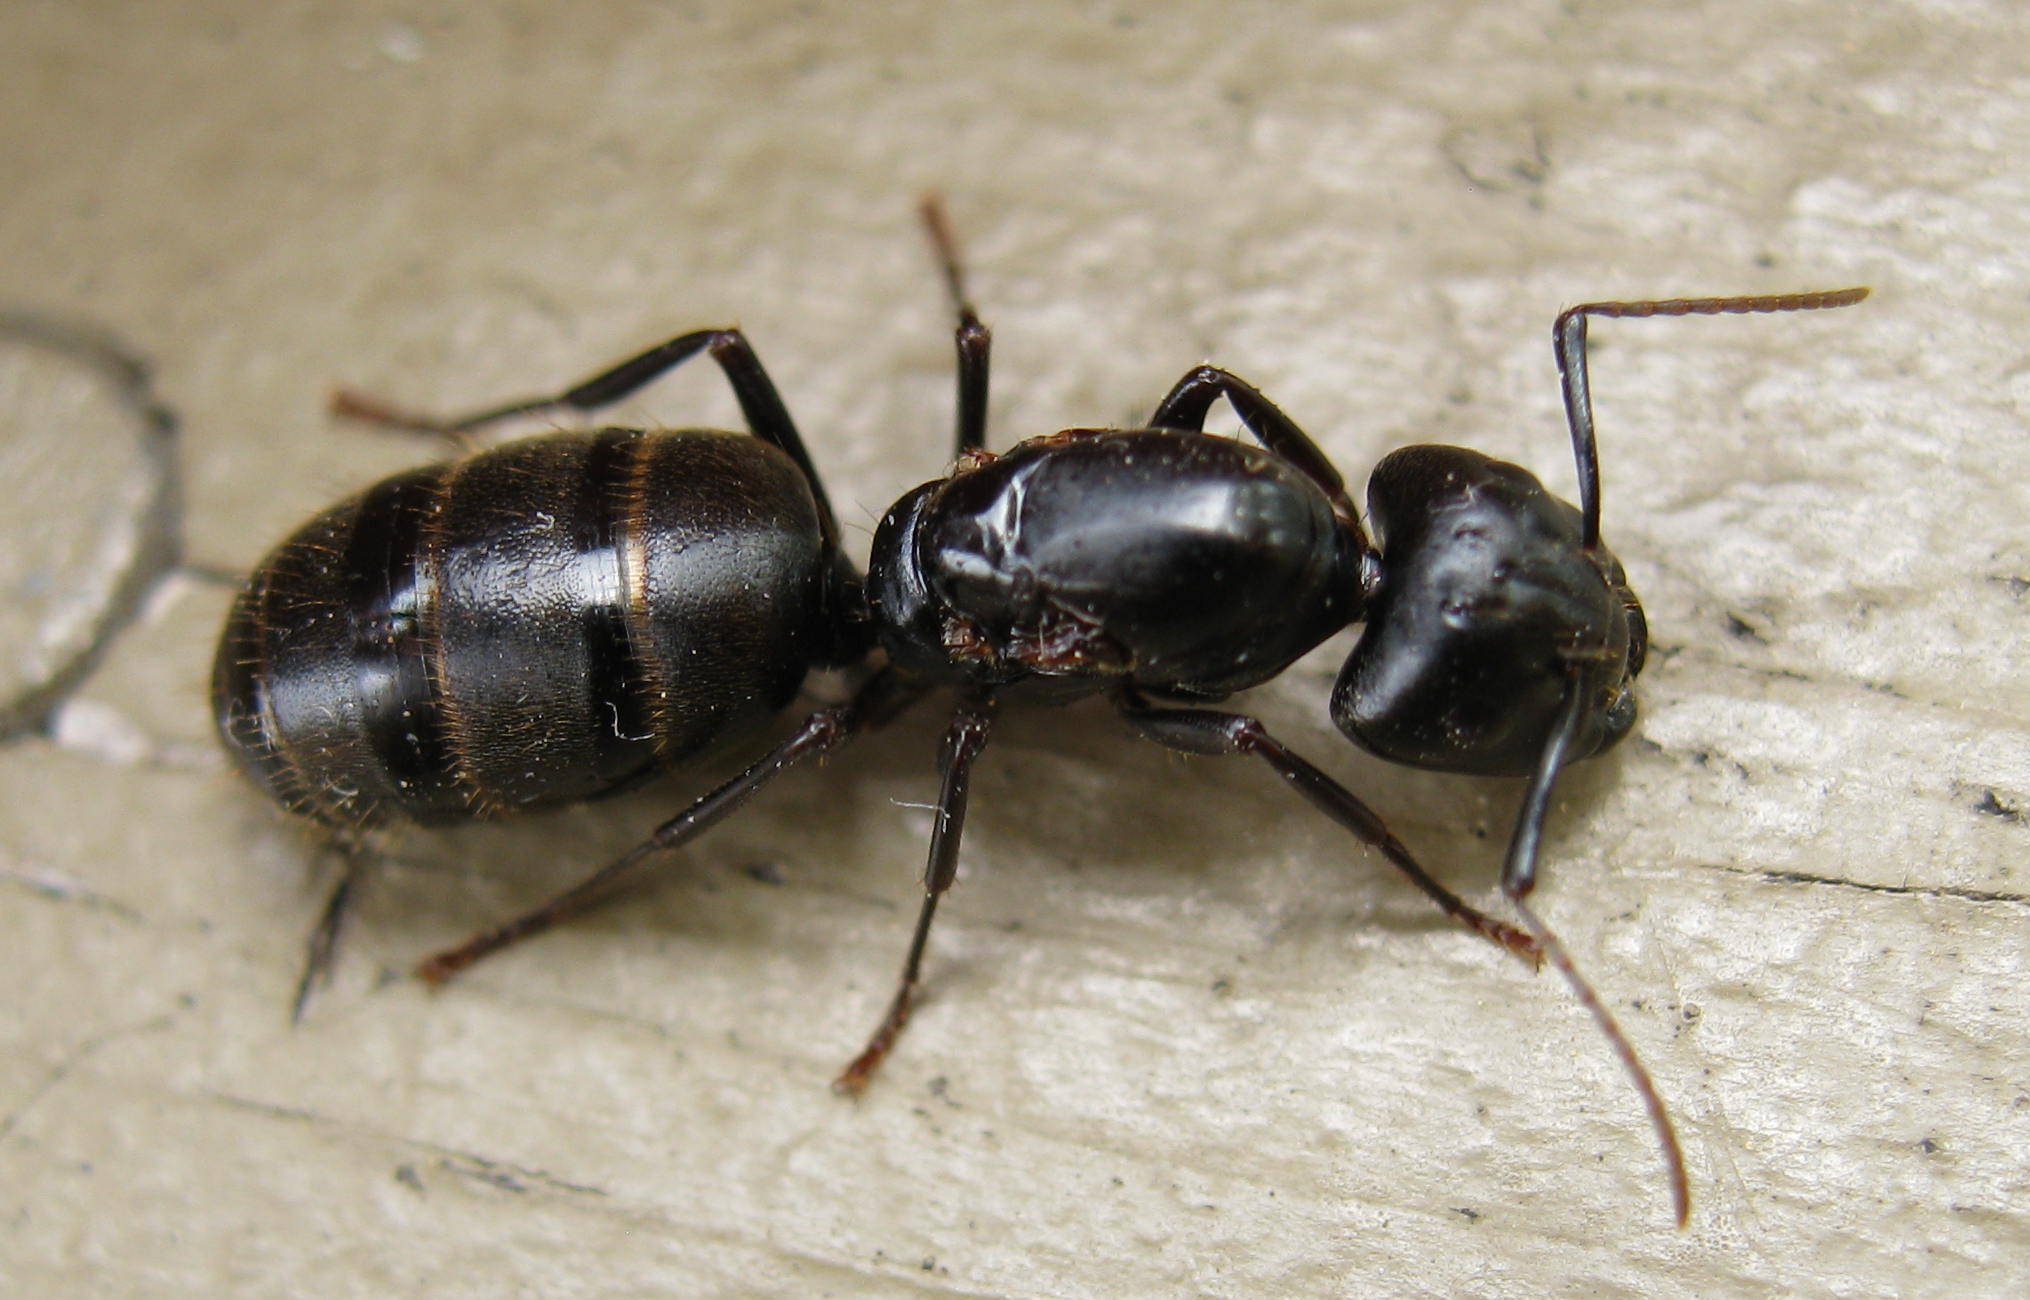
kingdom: Animalia
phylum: Arthropoda
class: Insecta
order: Hymenoptera
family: Formicidae
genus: Camponotus
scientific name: Camponotus pennsylvanicus
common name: Black carpenter ant
